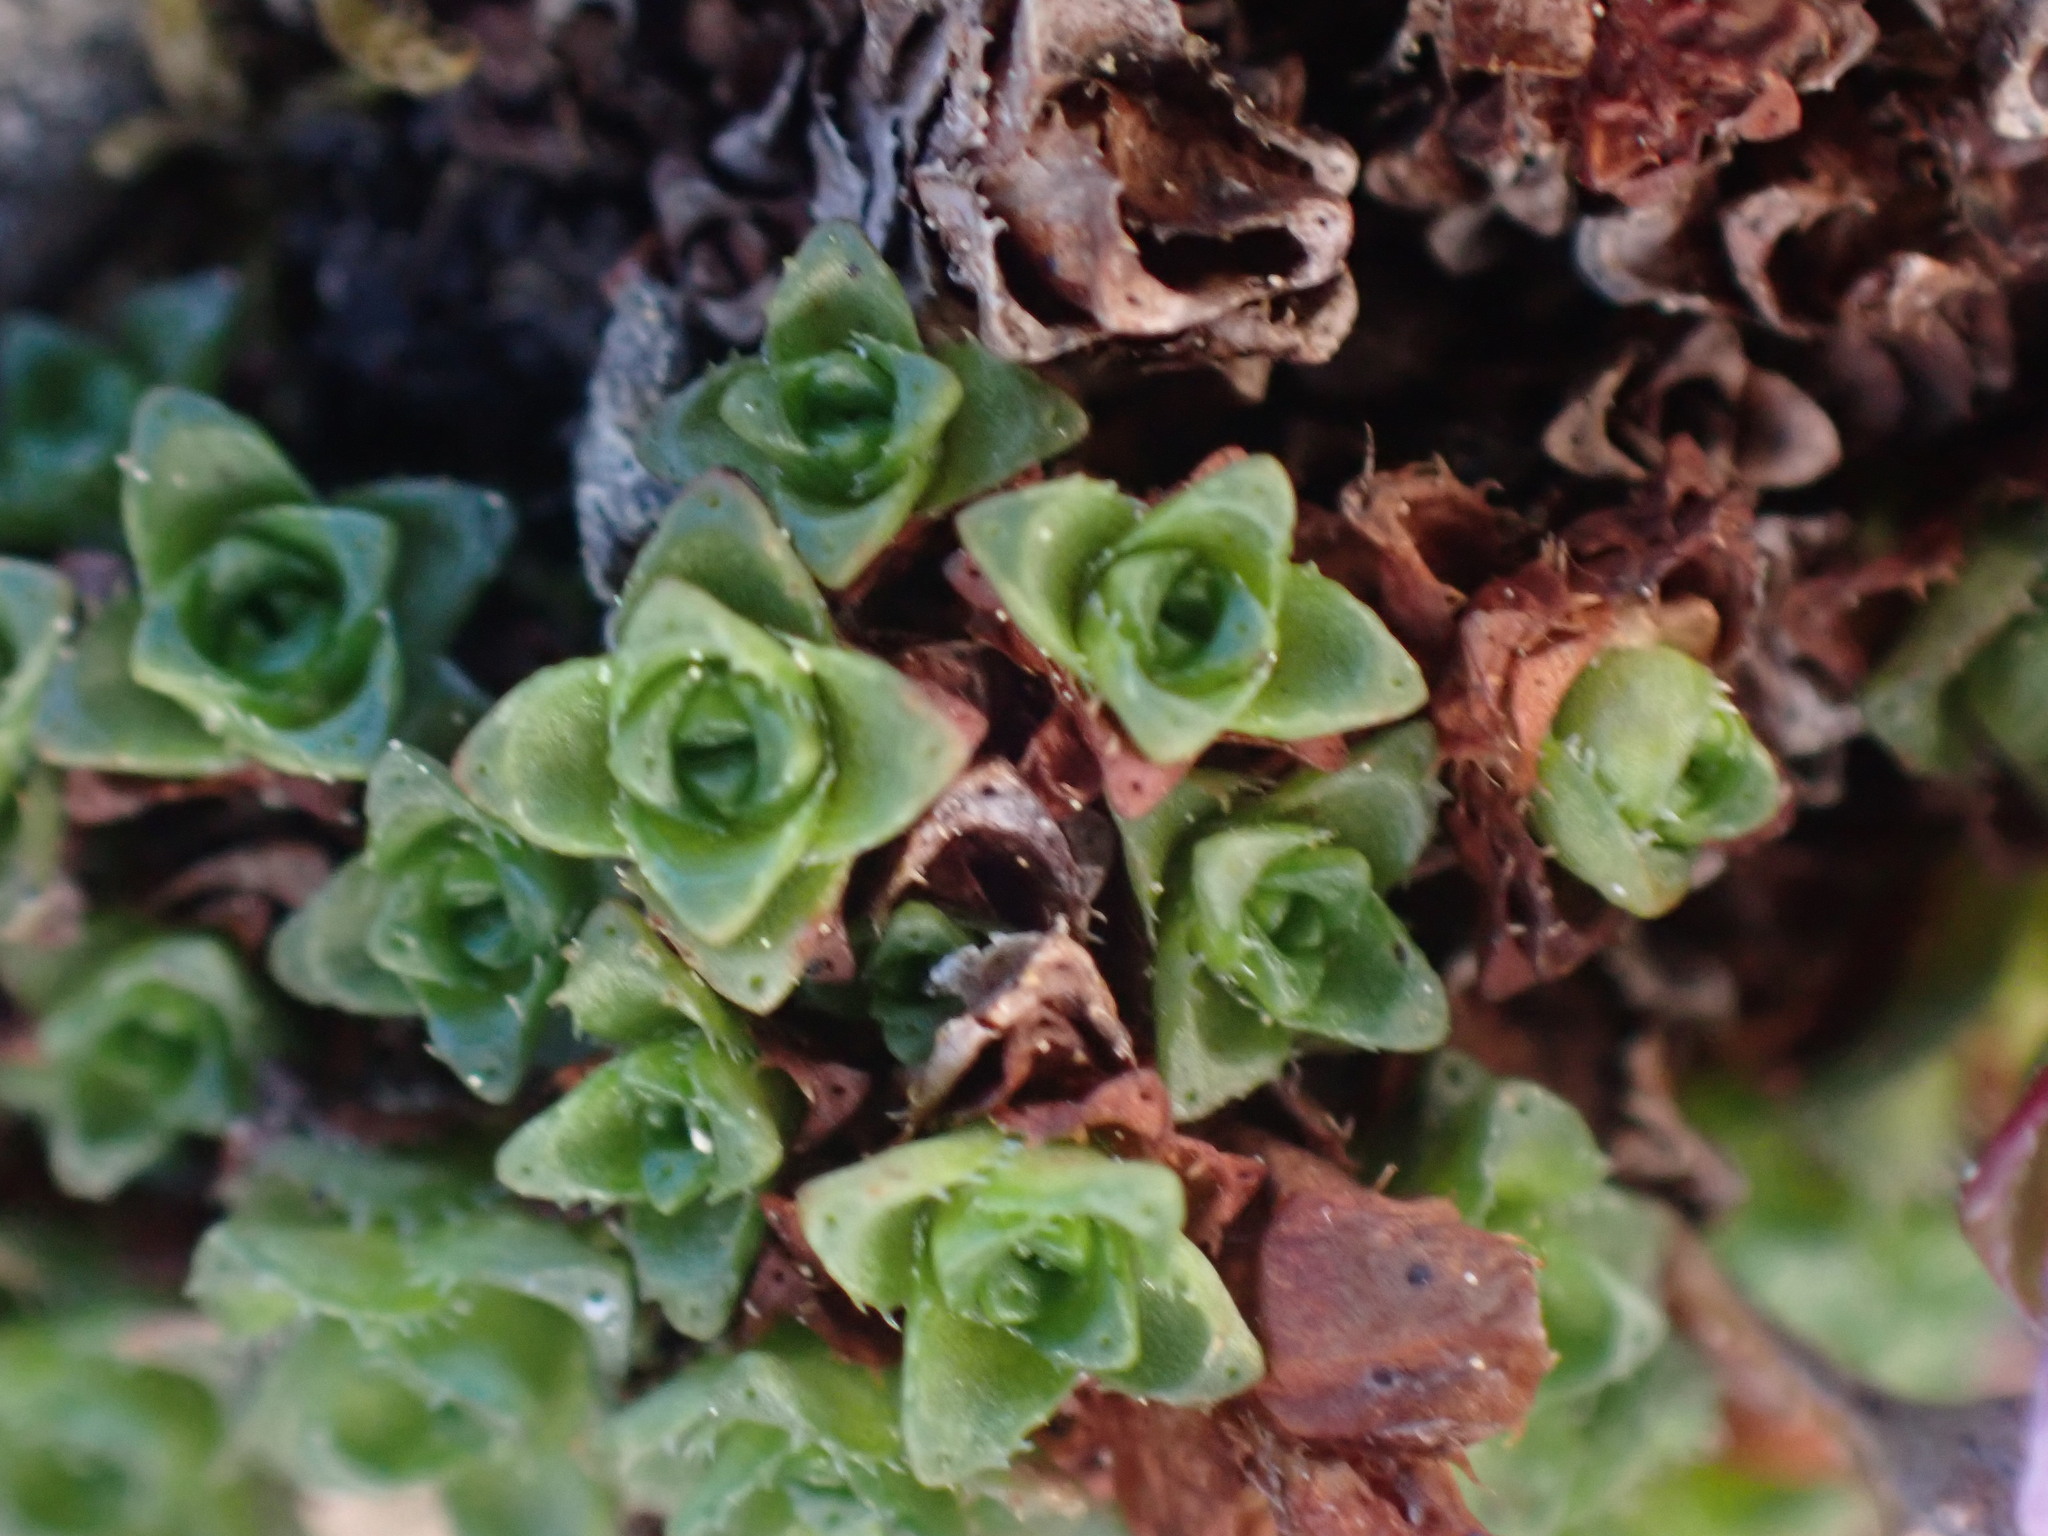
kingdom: Plantae
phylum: Tracheophyta
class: Magnoliopsida
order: Saxifragales
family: Saxifragaceae
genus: Saxifraga
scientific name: Saxifraga oppositifolia
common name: Purple saxifrage
